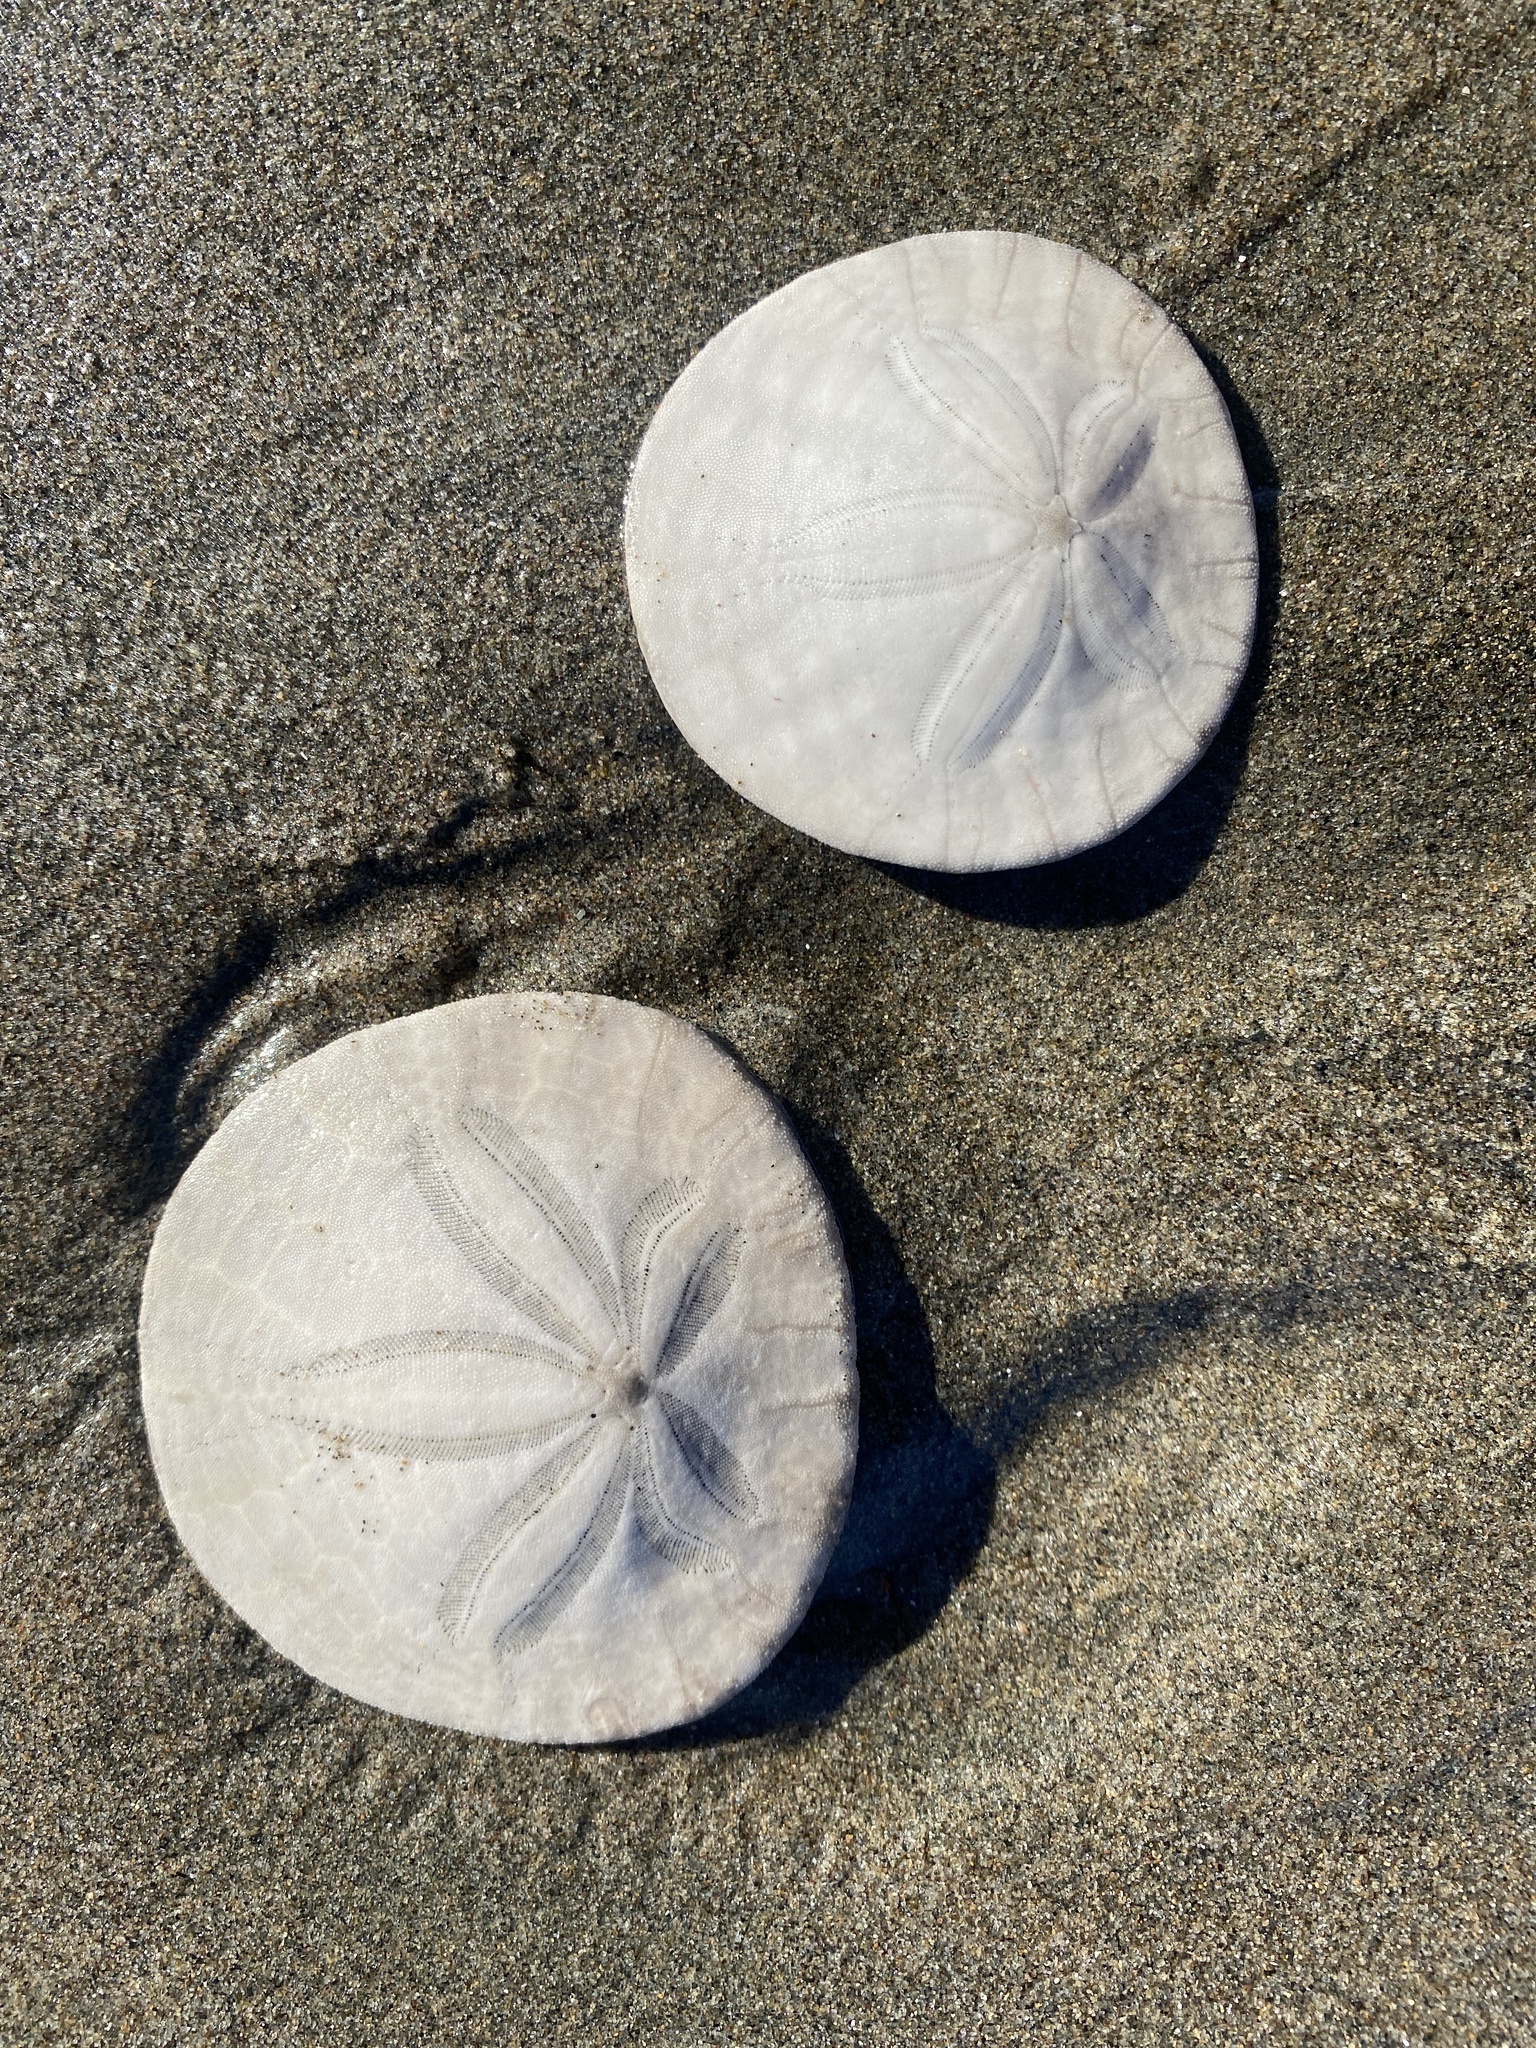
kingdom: Animalia
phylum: Echinodermata
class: Echinoidea
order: Echinolampadacea
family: Dendrasteridae
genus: Dendraster
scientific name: Dendraster excentricus
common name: Eccentric sand dollar sea urchin
